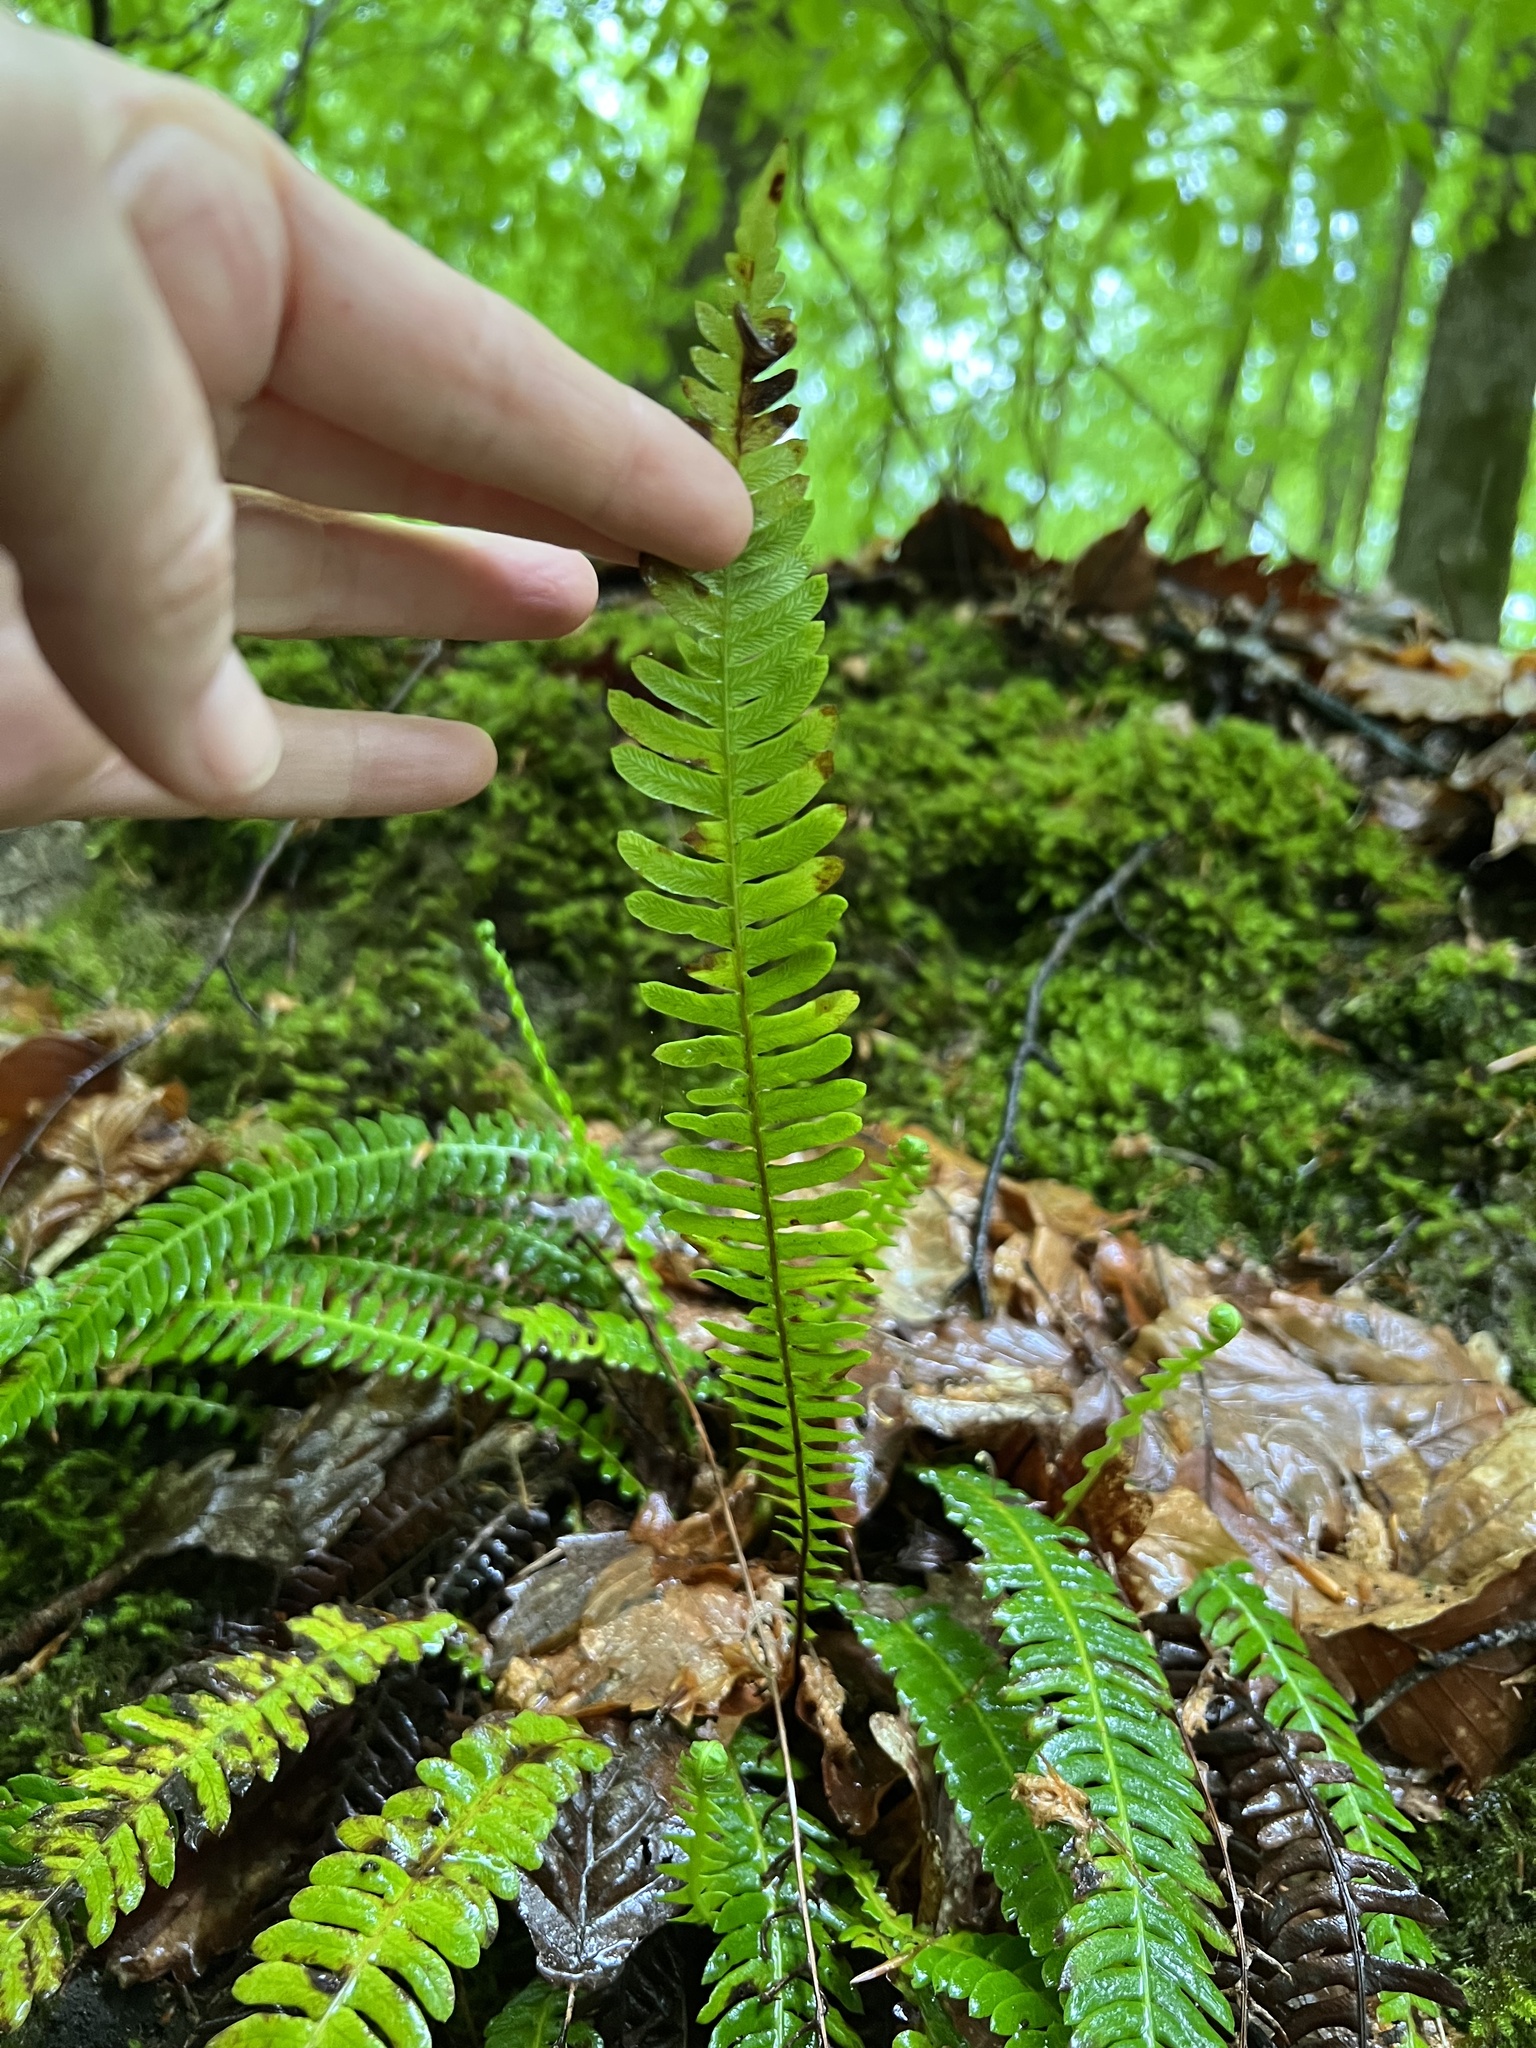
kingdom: Plantae
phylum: Tracheophyta
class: Polypodiopsida
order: Polypodiales
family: Blechnaceae
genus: Struthiopteris
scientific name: Struthiopteris spicant
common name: Deer fern
